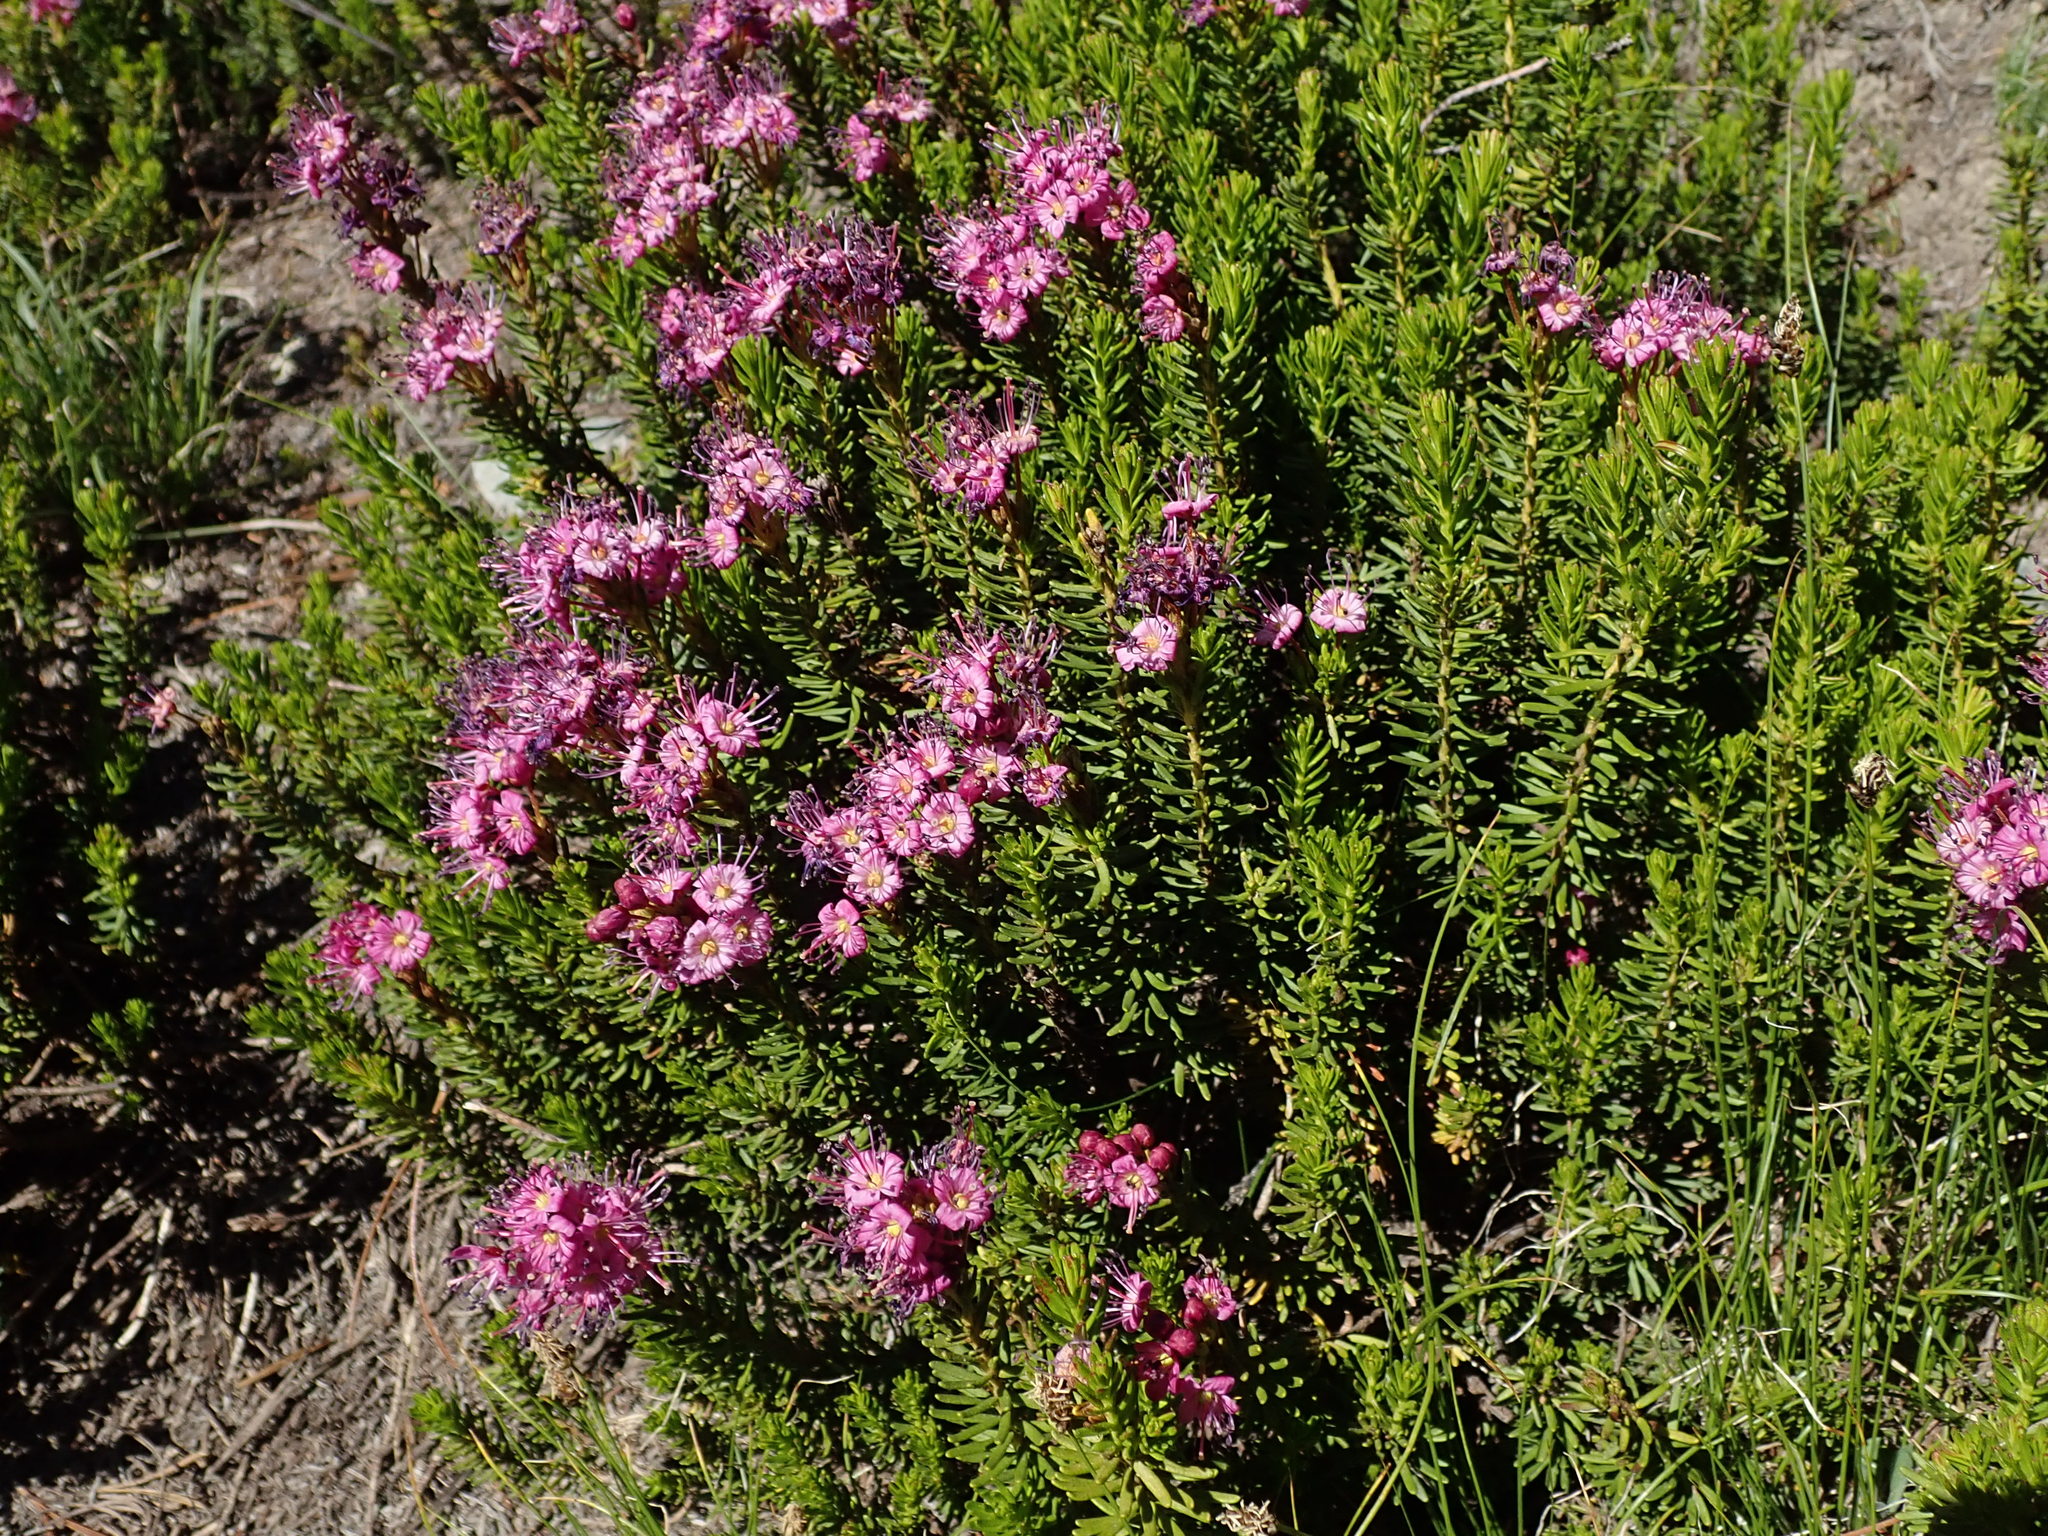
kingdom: Plantae
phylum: Tracheophyta
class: Magnoliopsida
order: Ericales
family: Ericaceae
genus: Phyllodoce
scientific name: Phyllodoce breweri
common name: Brewer's mountain-heather
